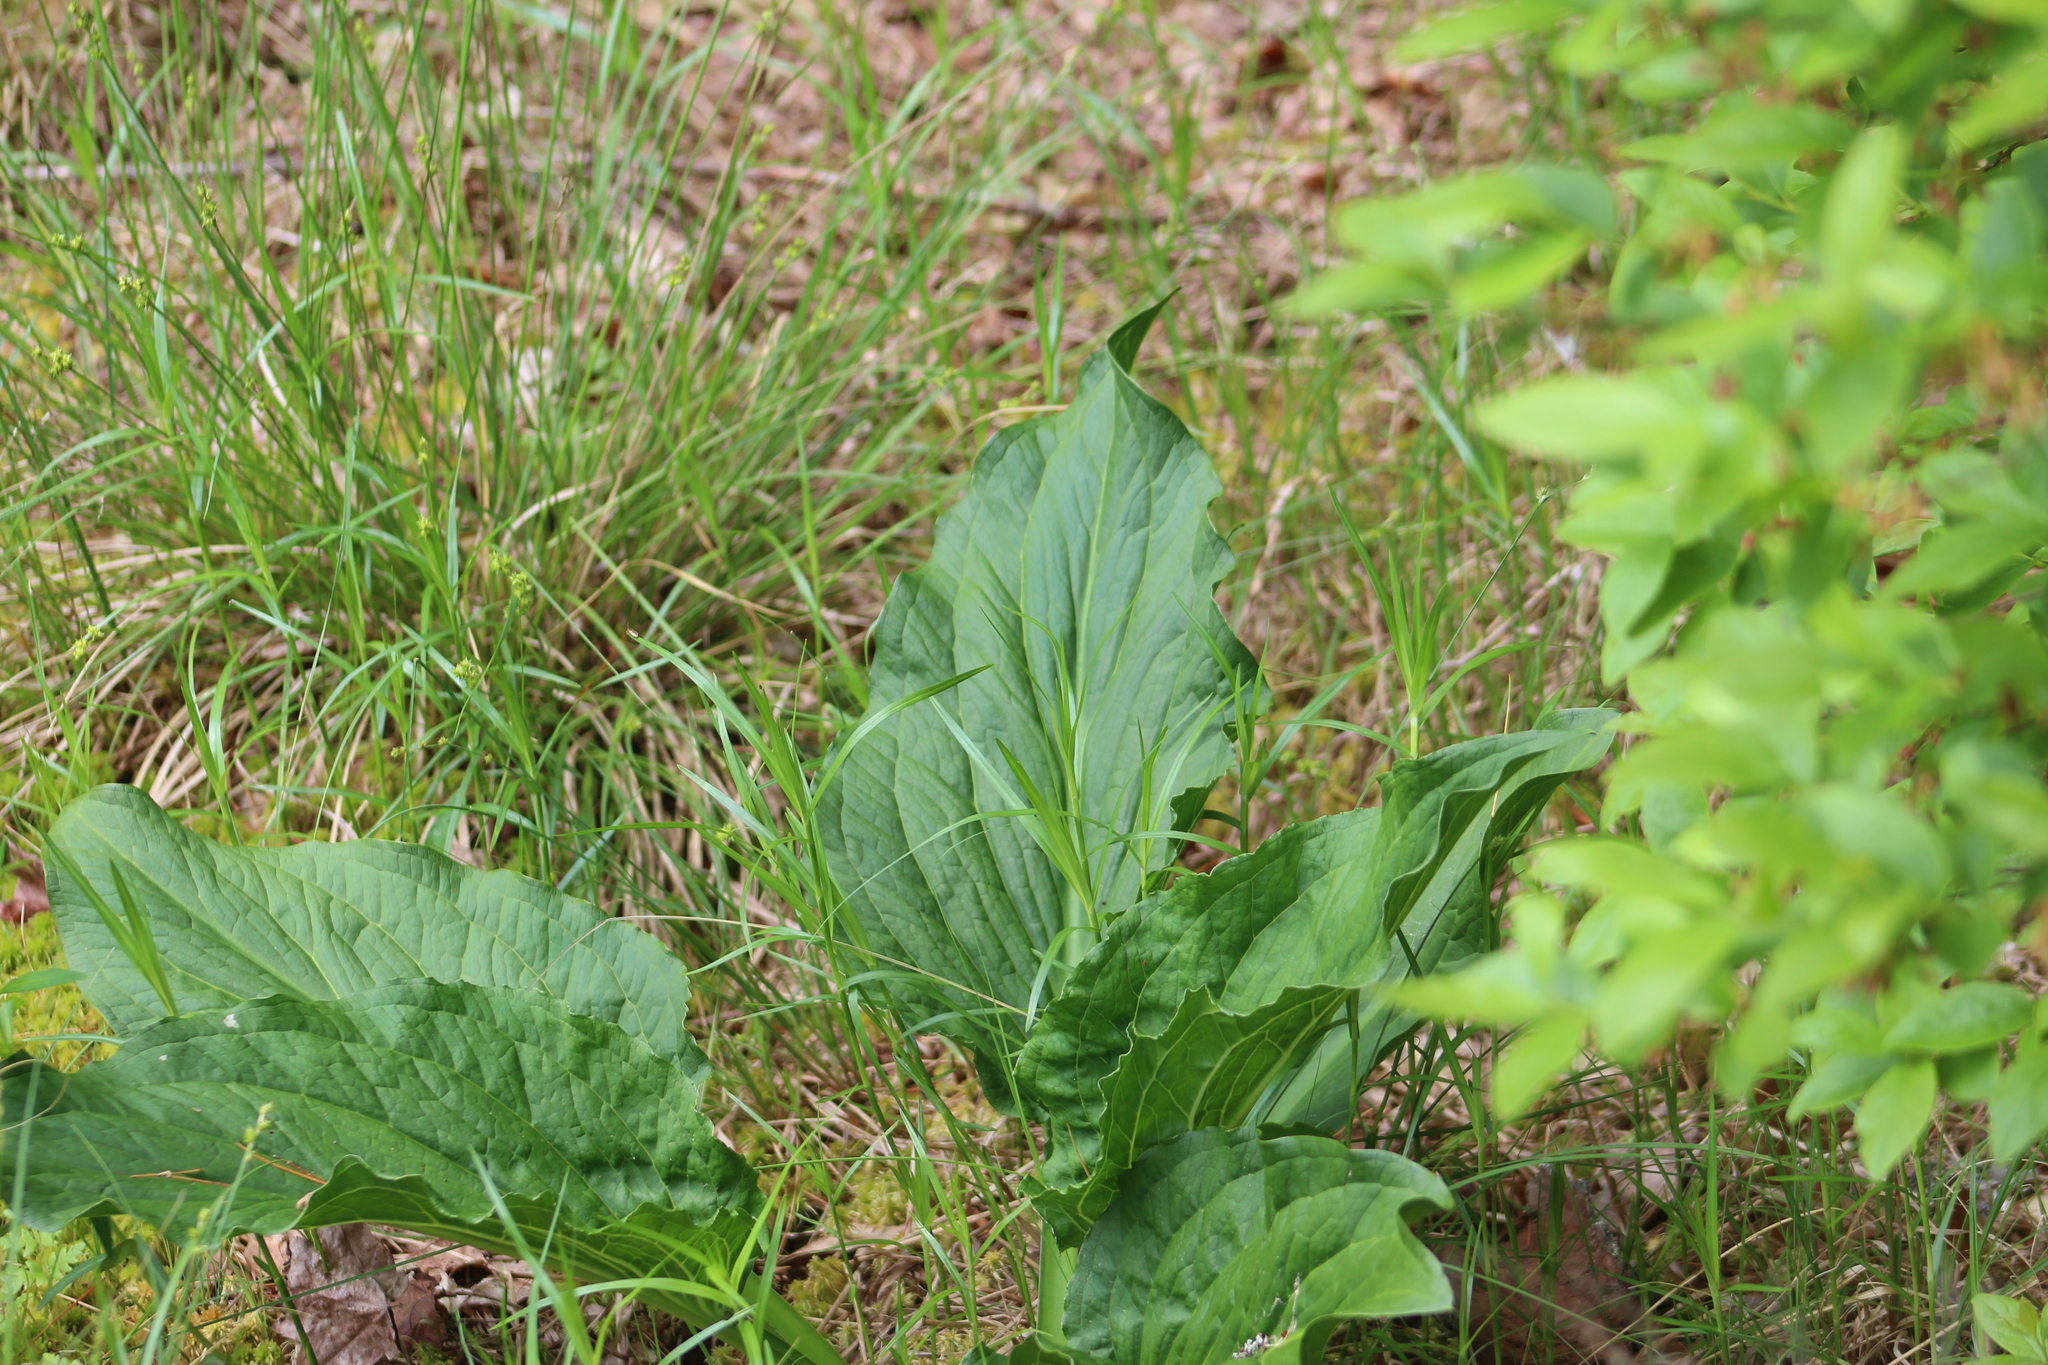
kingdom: Plantae
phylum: Tracheophyta
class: Liliopsida
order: Alismatales
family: Araceae
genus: Symplocarpus
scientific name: Symplocarpus foetidus
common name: Eastern skunk cabbage
